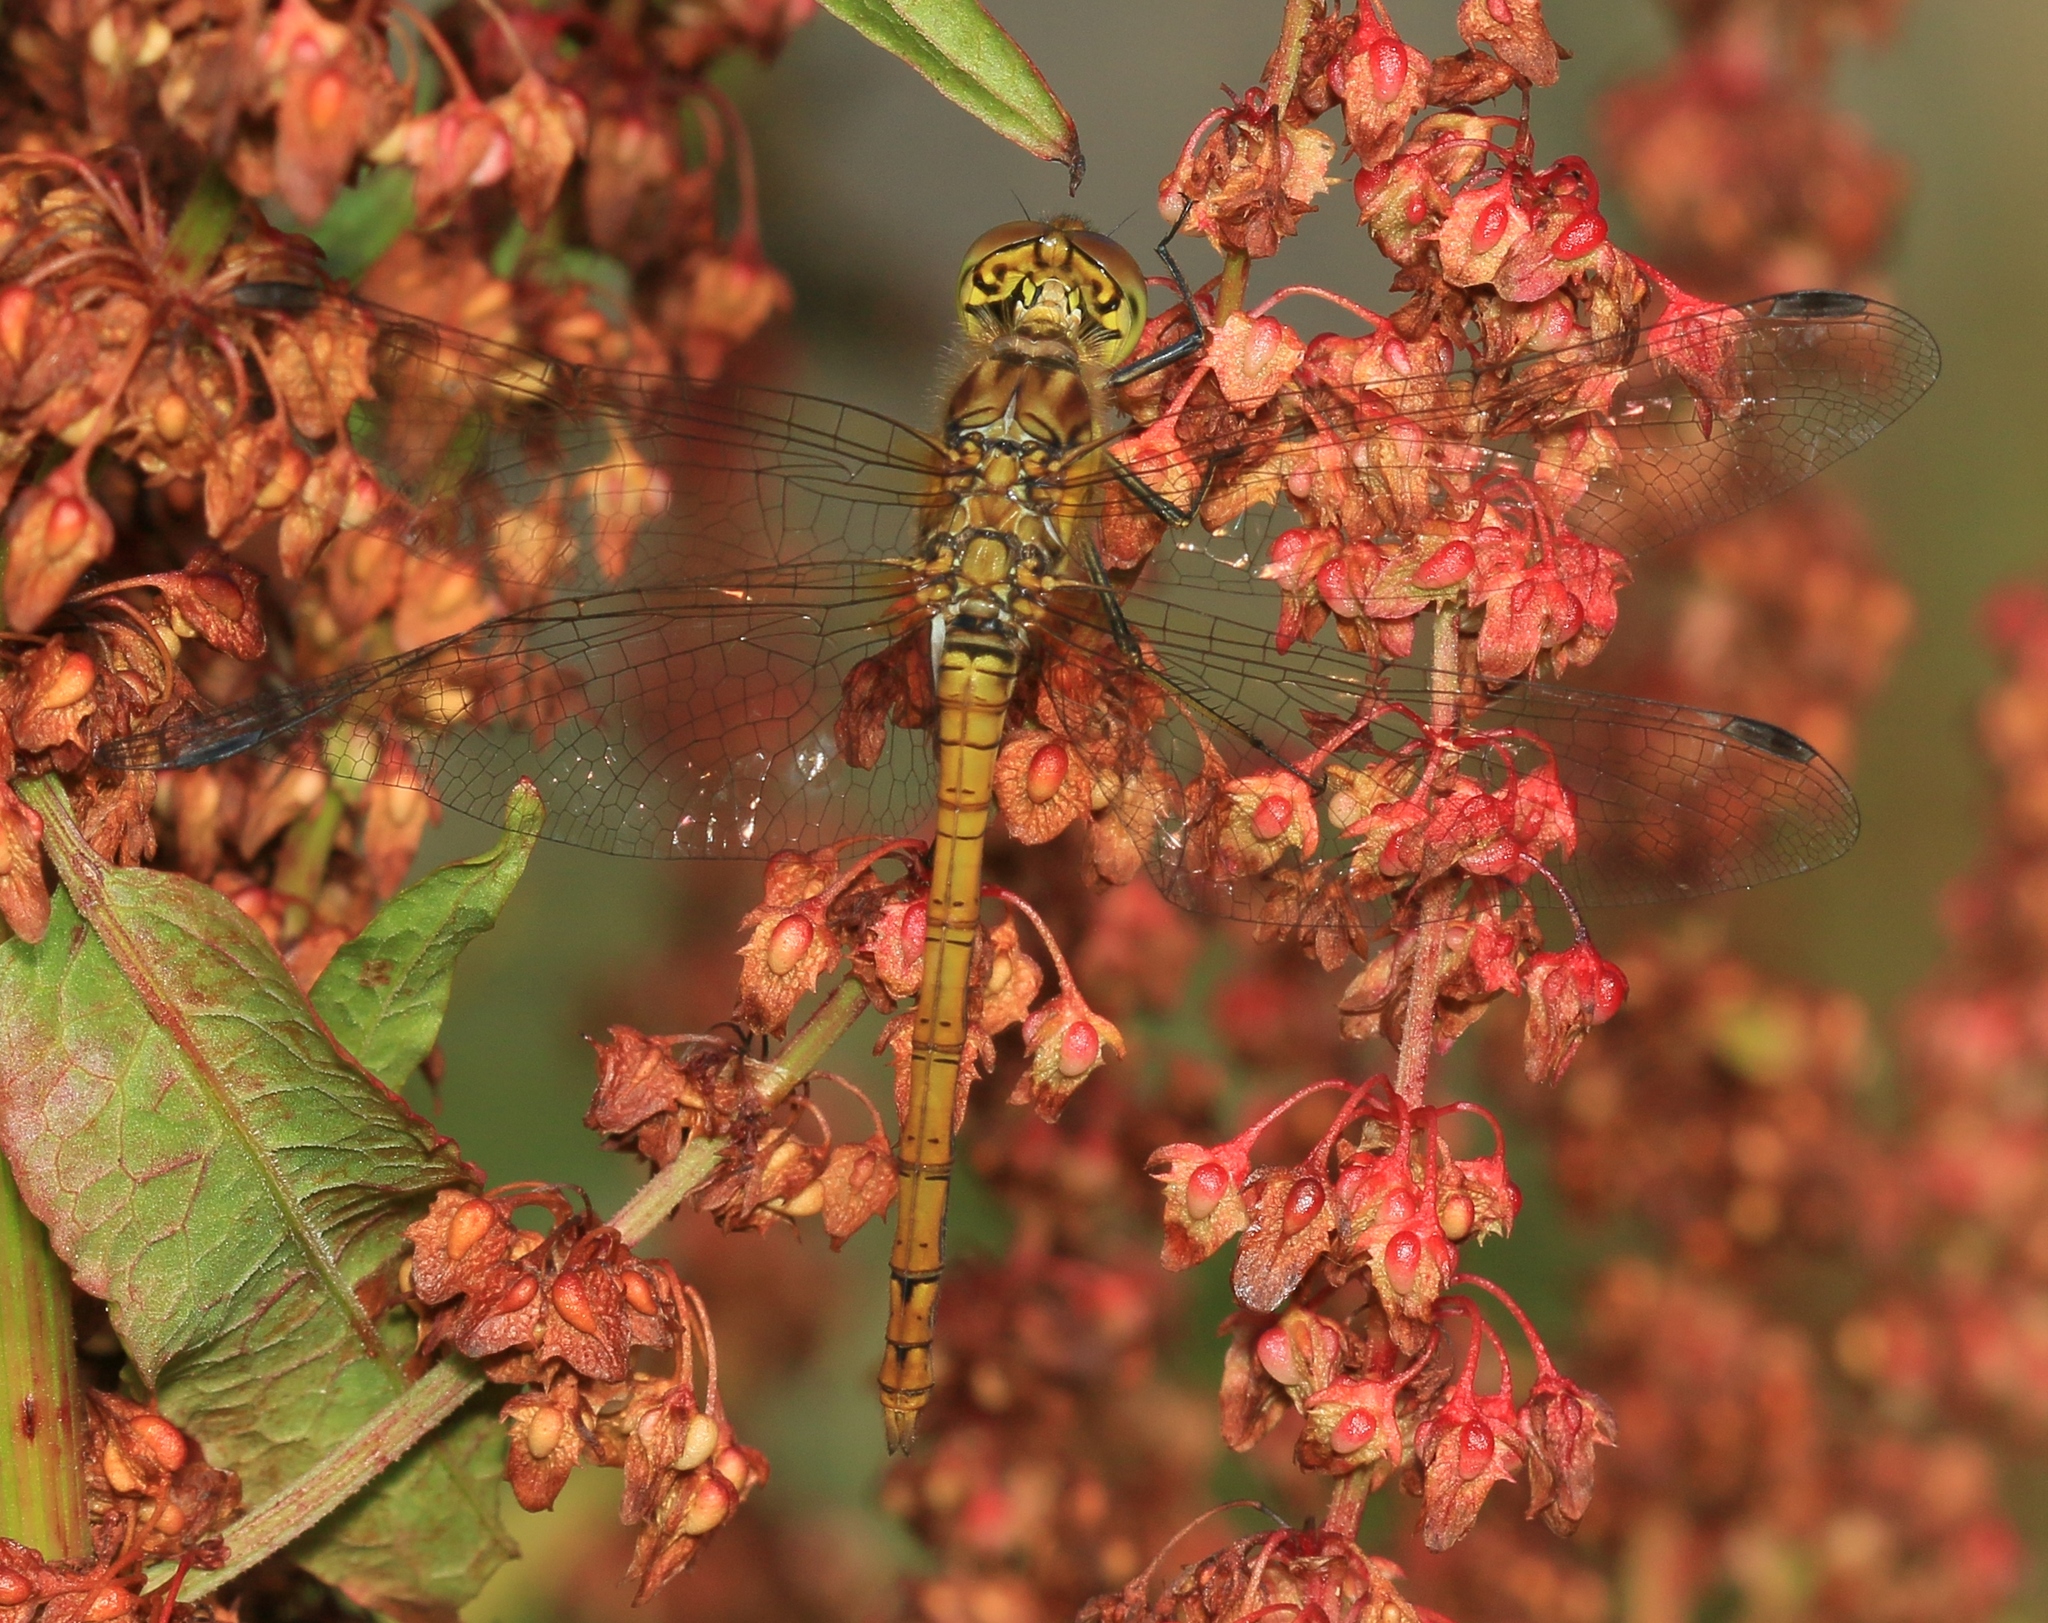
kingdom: Animalia
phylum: Arthropoda
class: Insecta
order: Odonata
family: Libellulidae
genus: Sympetrum
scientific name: Sympetrum striolatum
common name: Common darter
